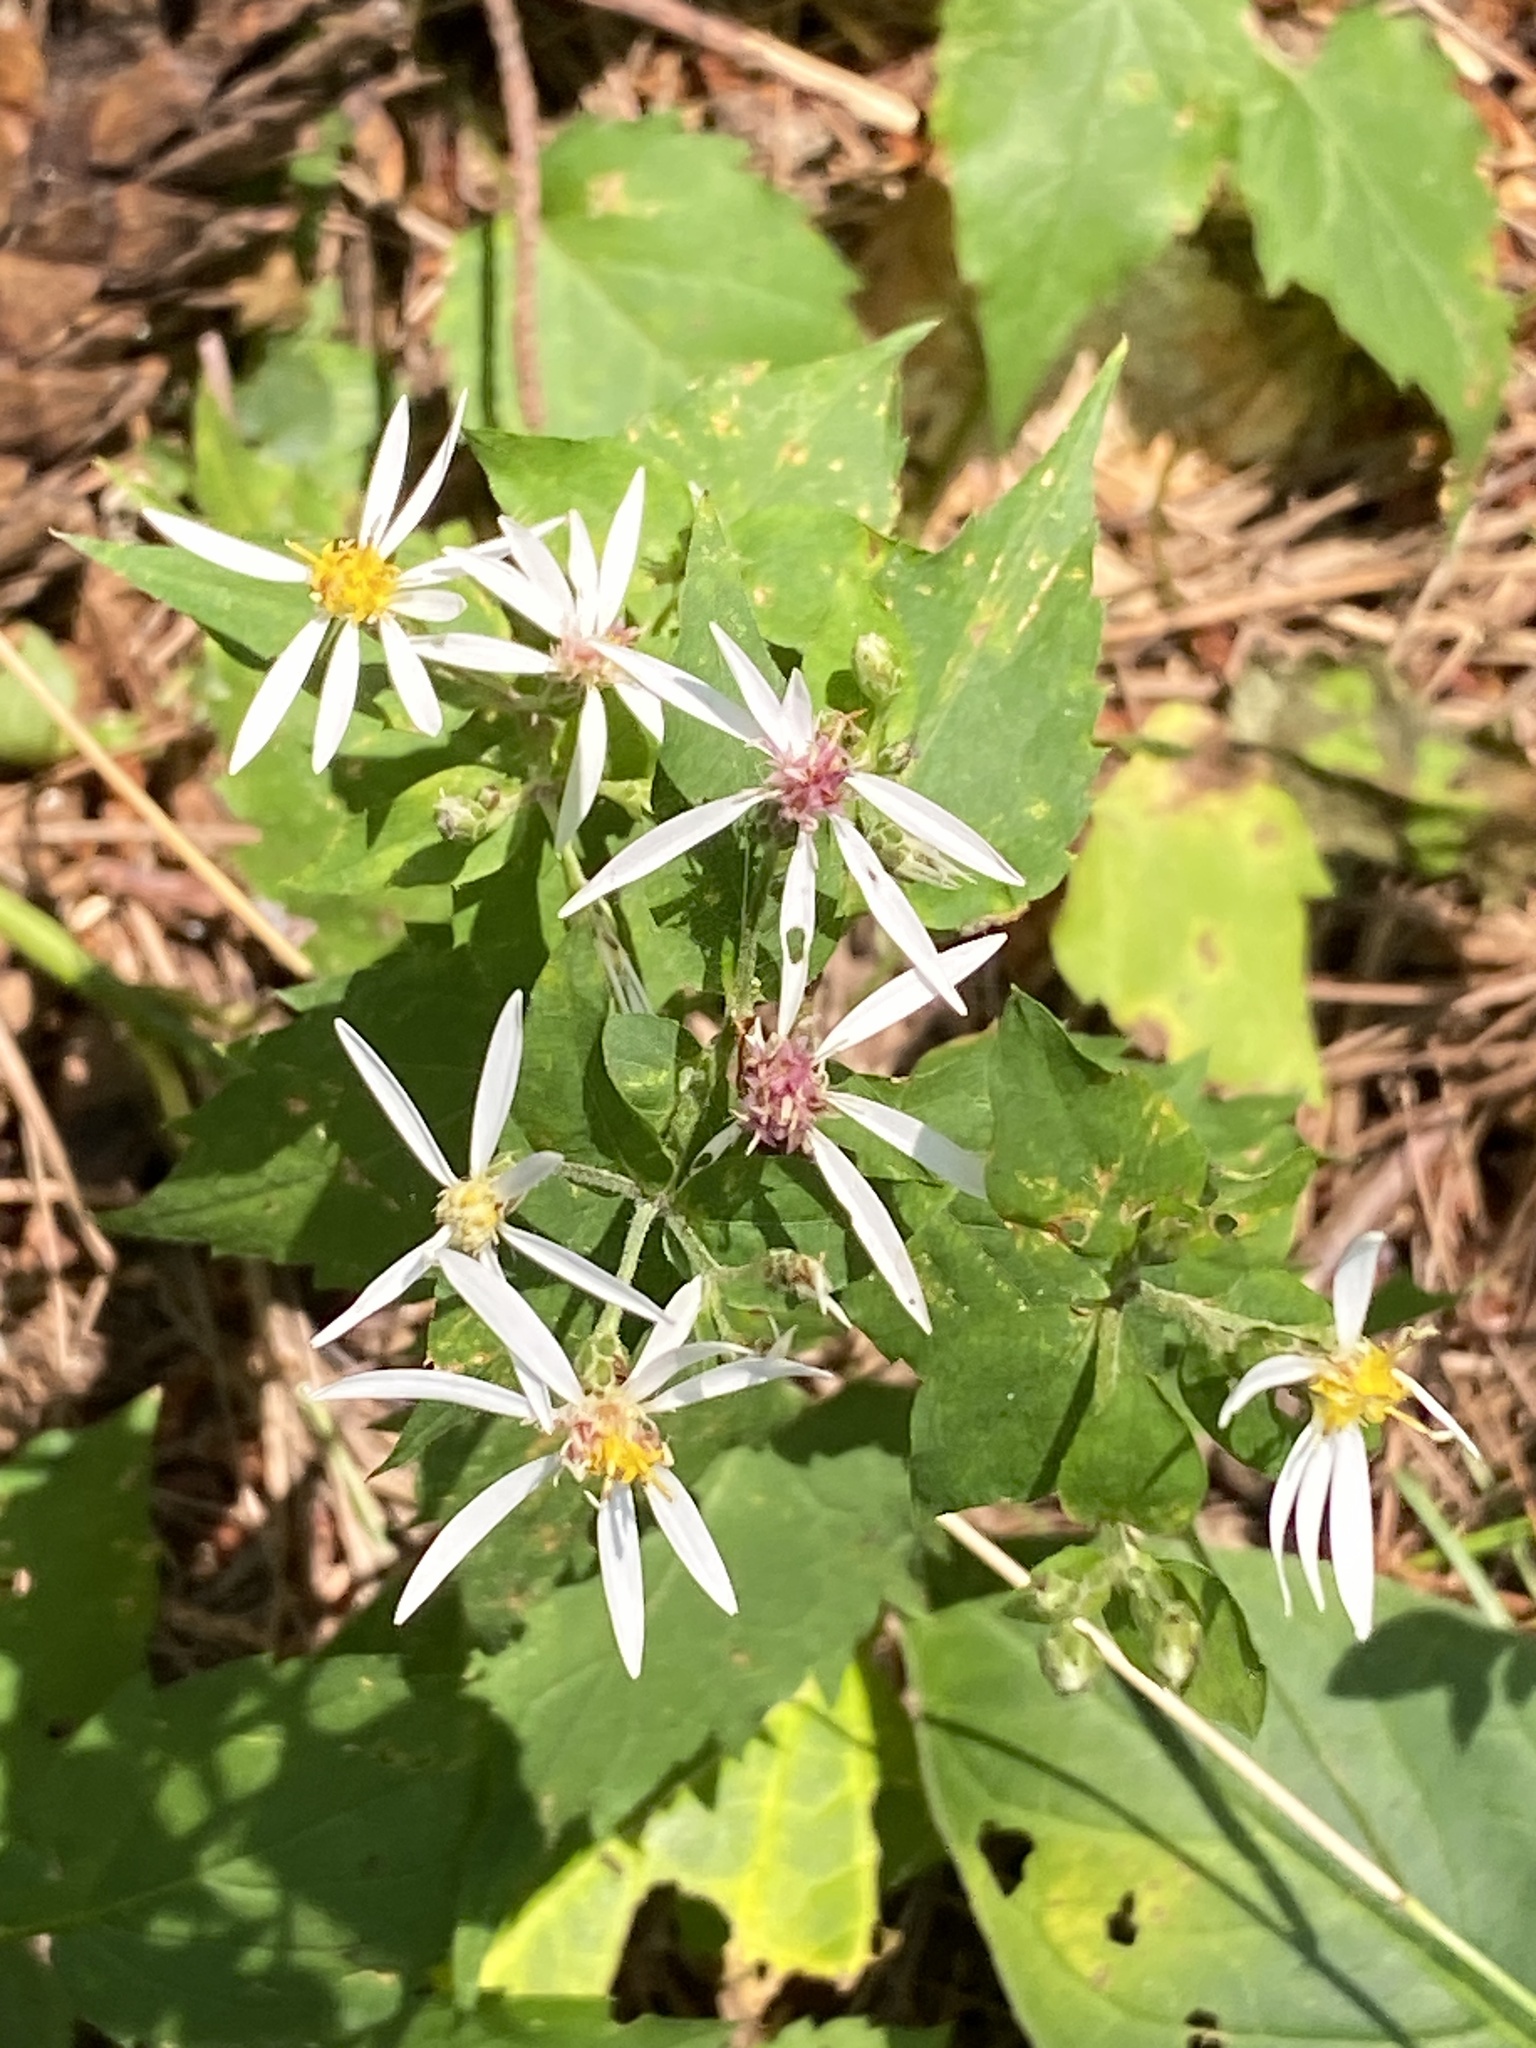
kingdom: Plantae
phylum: Tracheophyta
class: Magnoliopsida
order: Asterales
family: Asteraceae
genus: Eurybia
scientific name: Eurybia divaricata
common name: White wood aster
